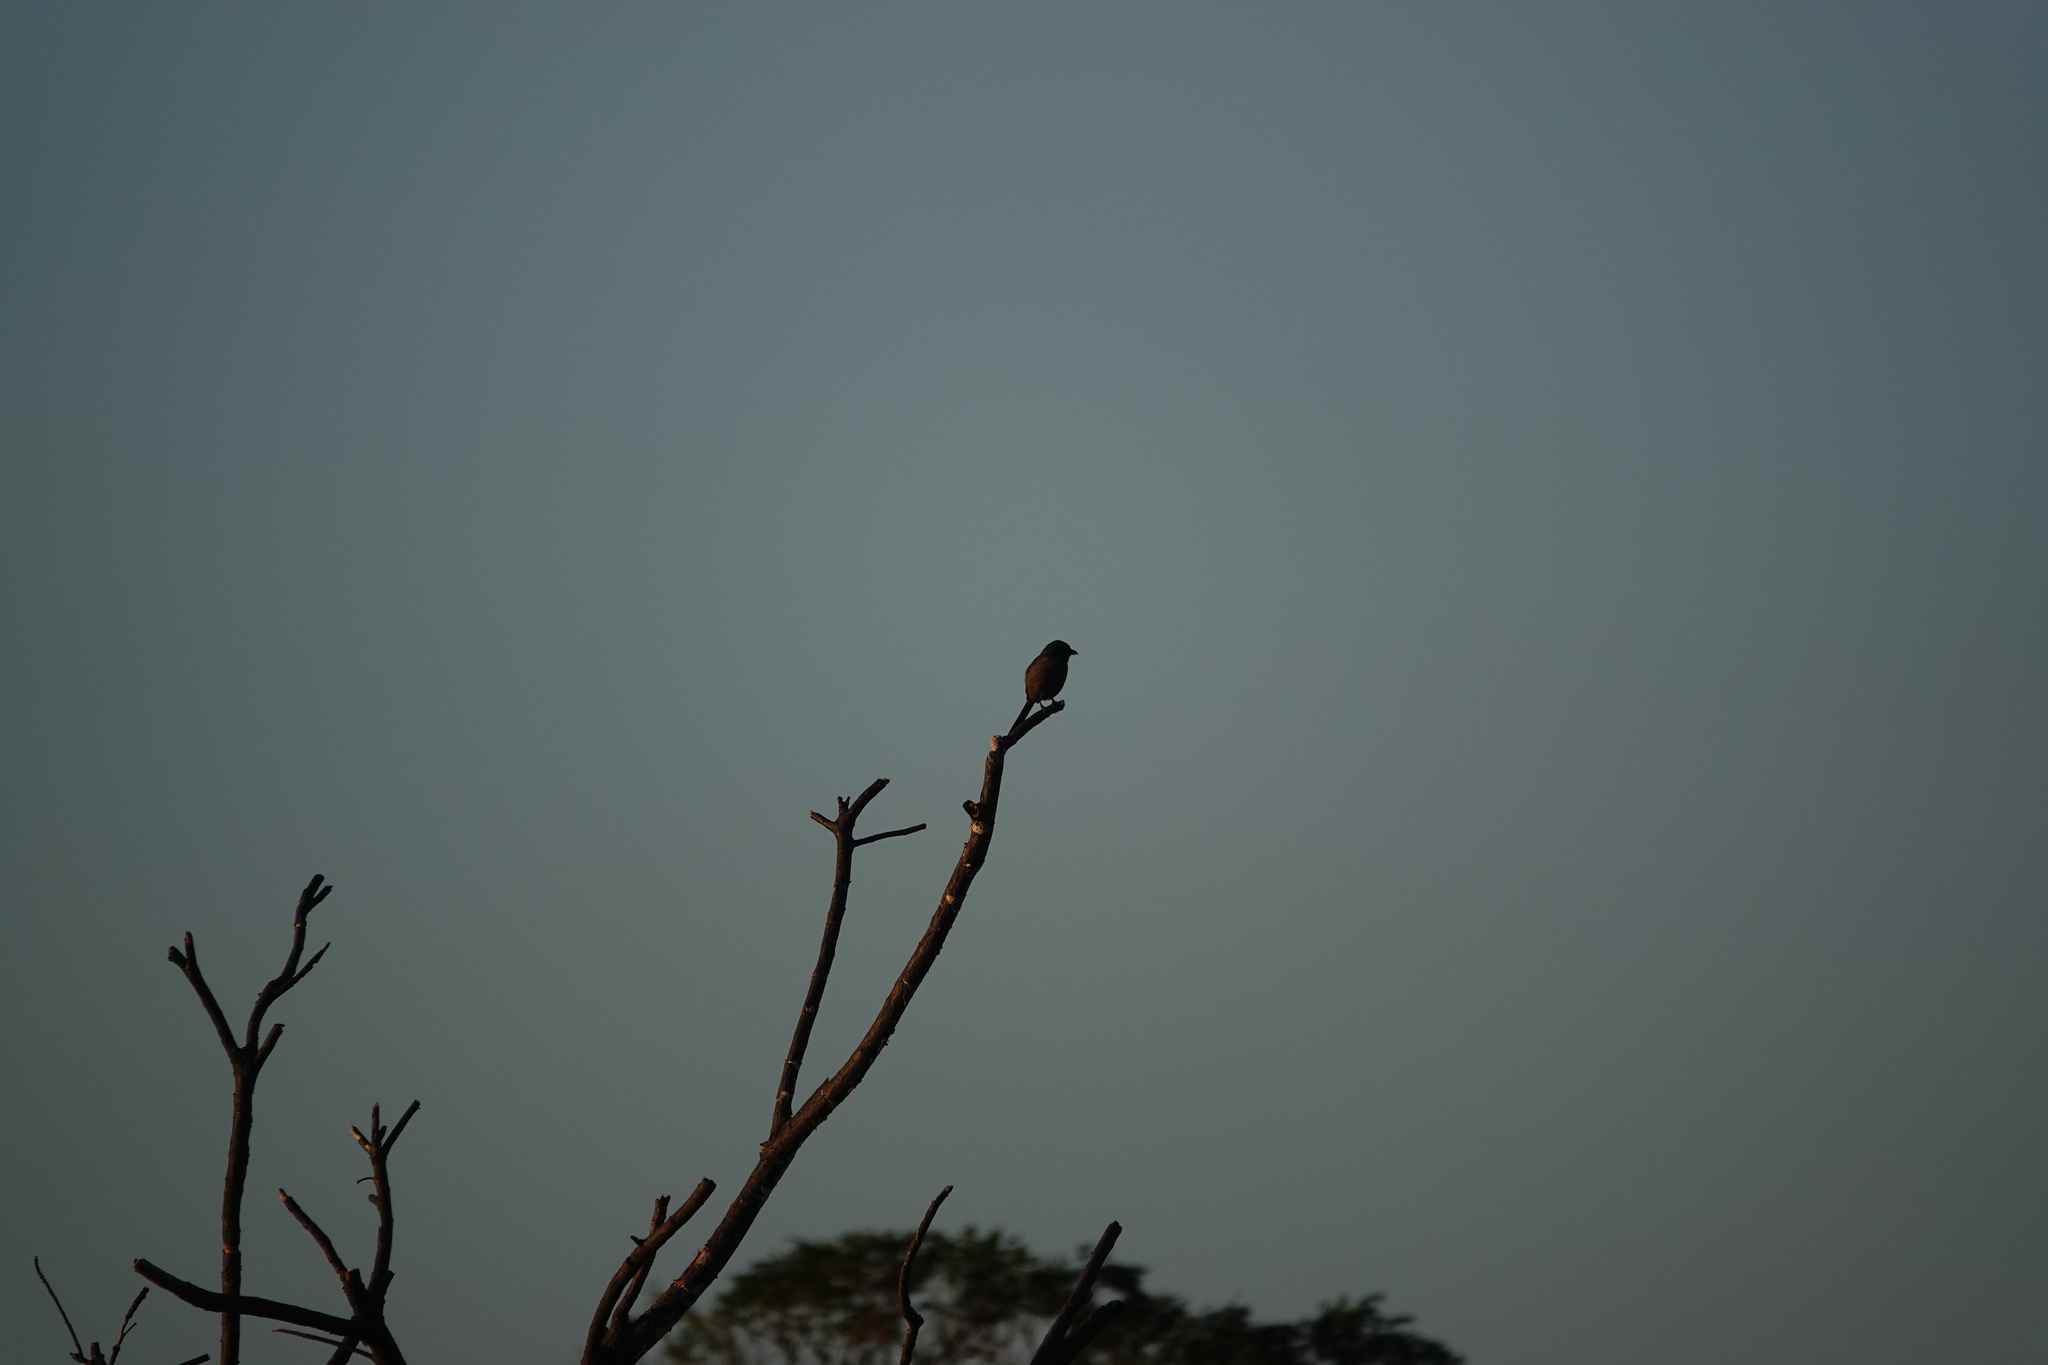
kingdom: Animalia
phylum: Chordata
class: Aves
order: Passeriformes
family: Laniidae
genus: Lanius
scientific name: Lanius schach
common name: Long-tailed shrike
